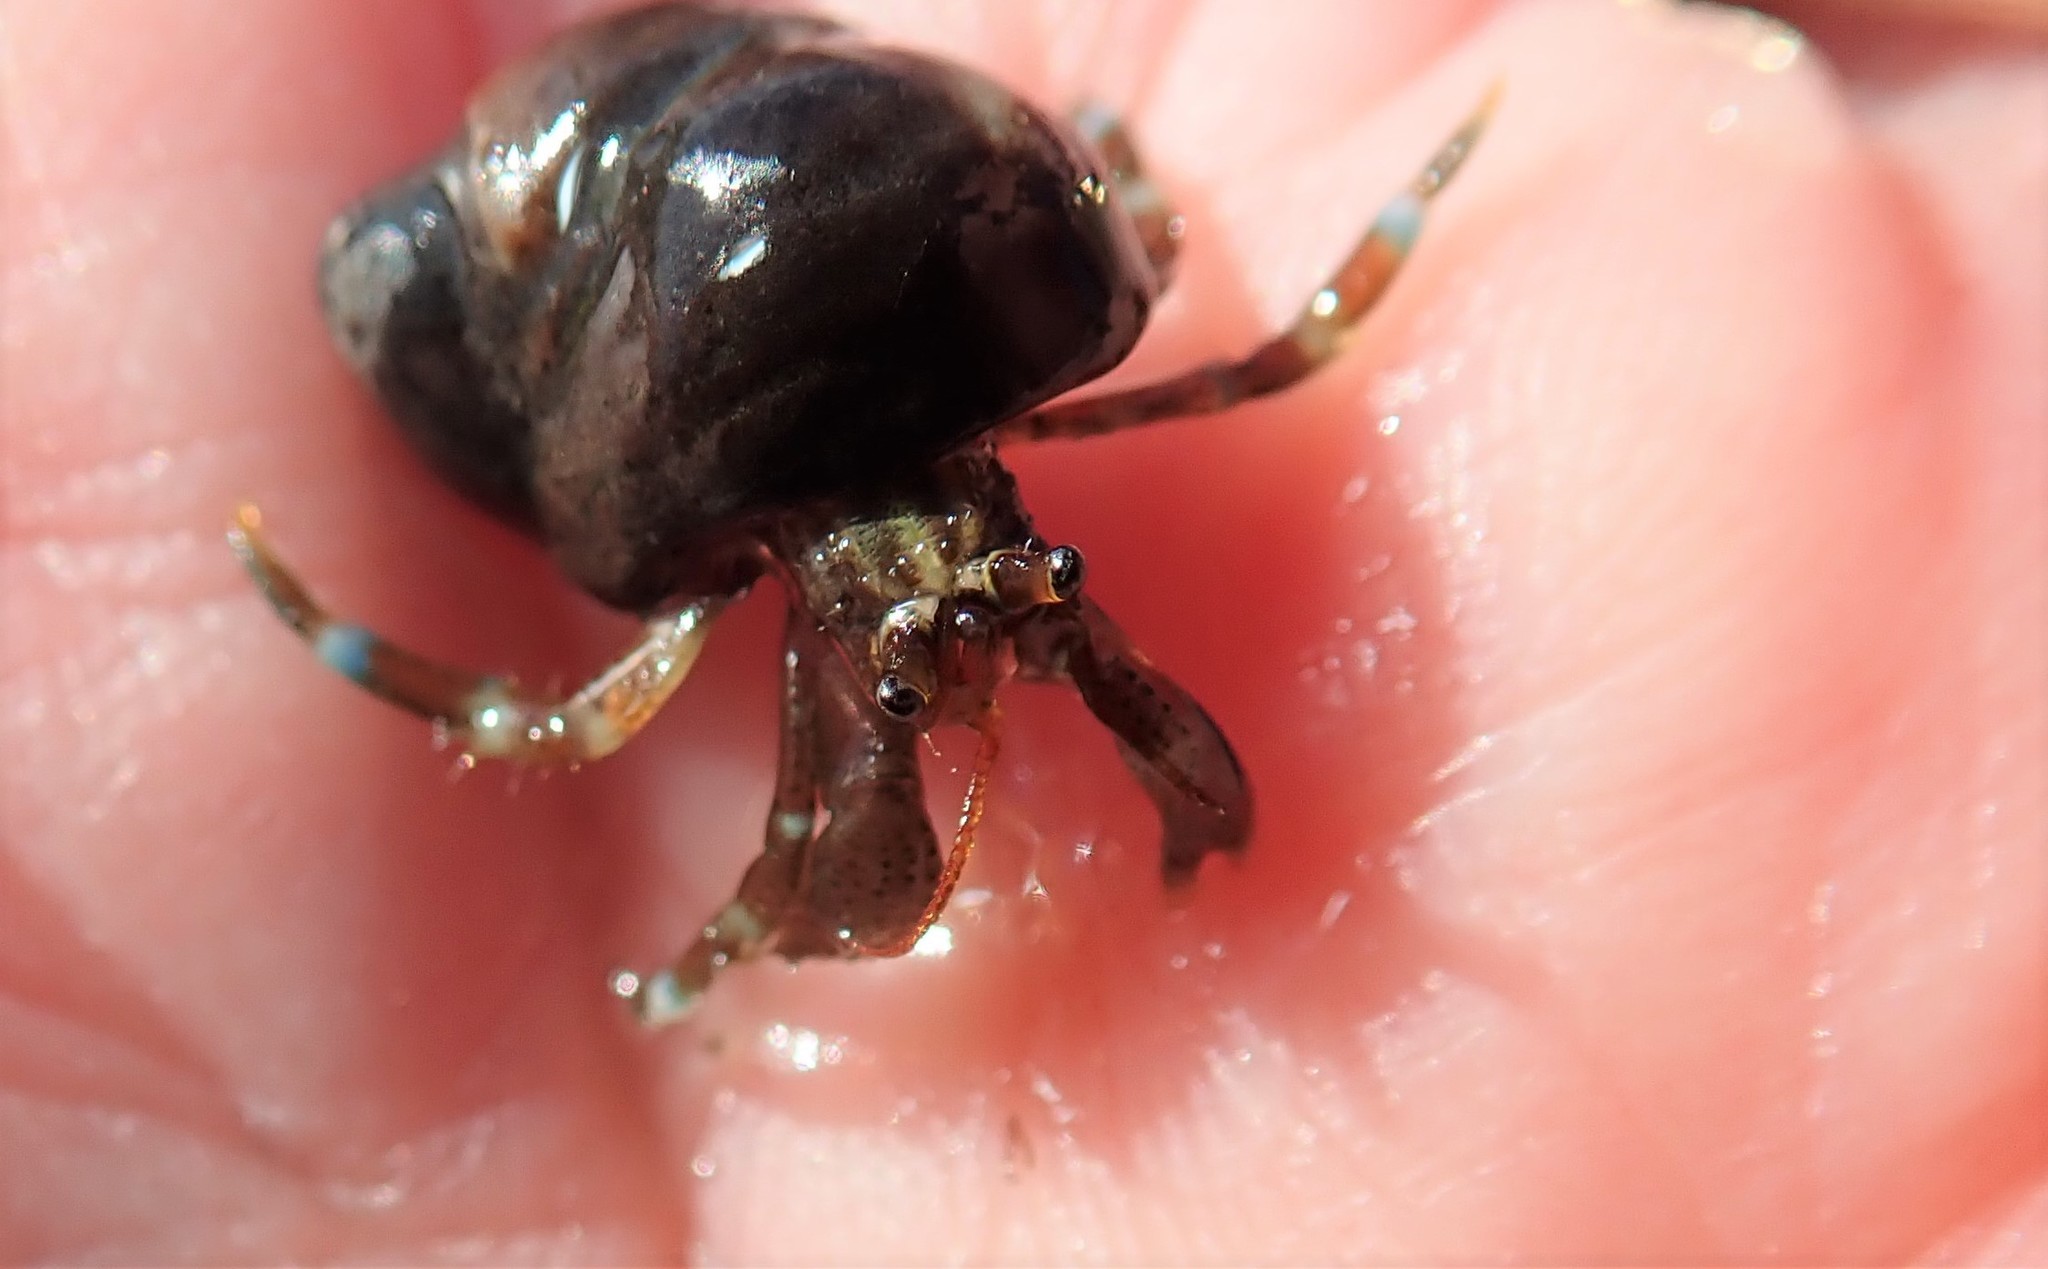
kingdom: Animalia
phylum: Arthropoda
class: Malacostraca
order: Decapoda
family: Paguridae
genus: Pagurus
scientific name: Pagurus samuelis
